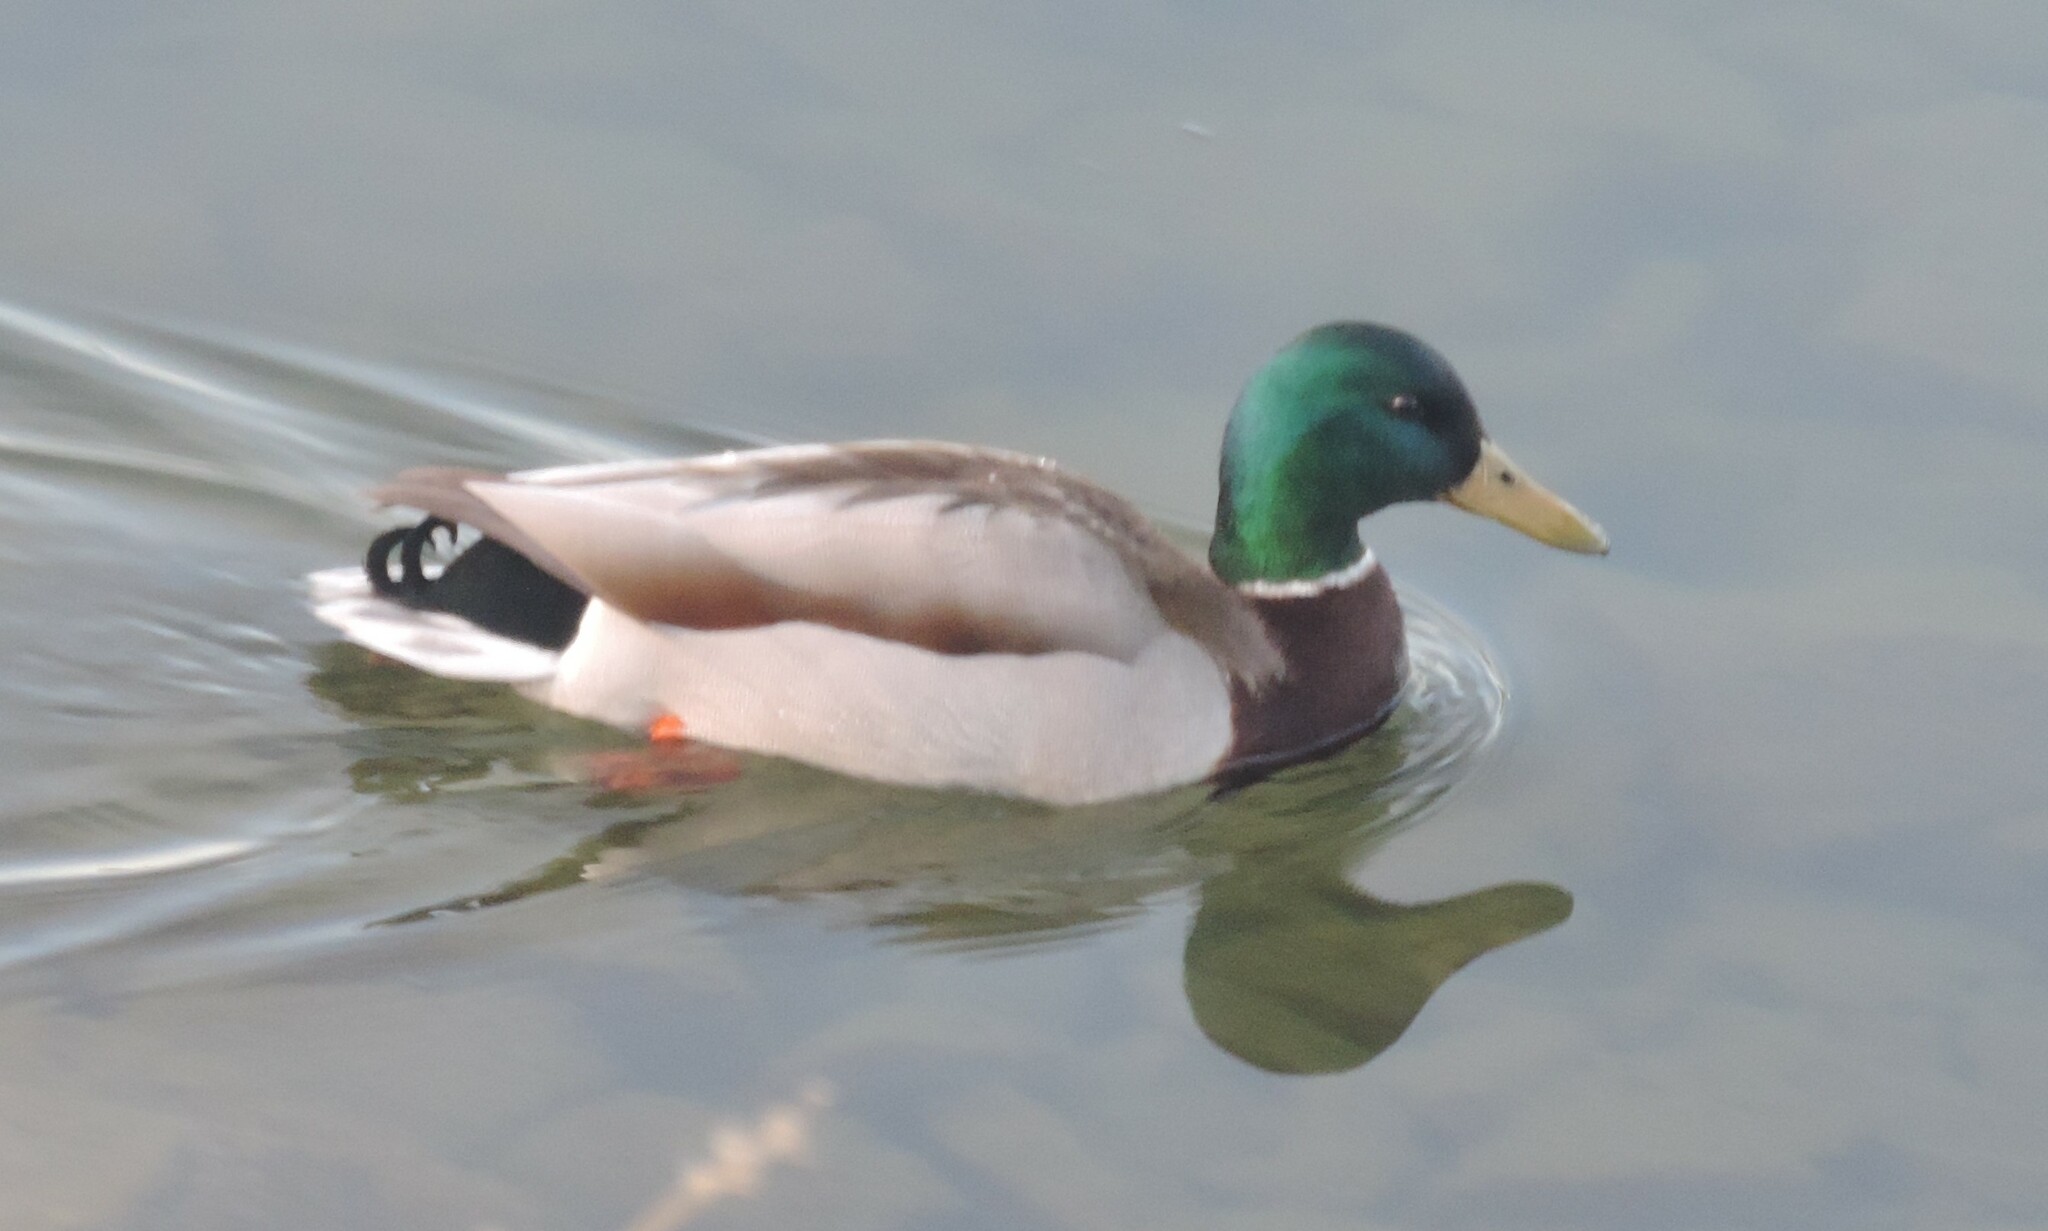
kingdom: Animalia
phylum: Chordata
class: Aves
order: Anseriformes
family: Anatidae
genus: Anas
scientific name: Anas platyrhynchos
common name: Mallard
